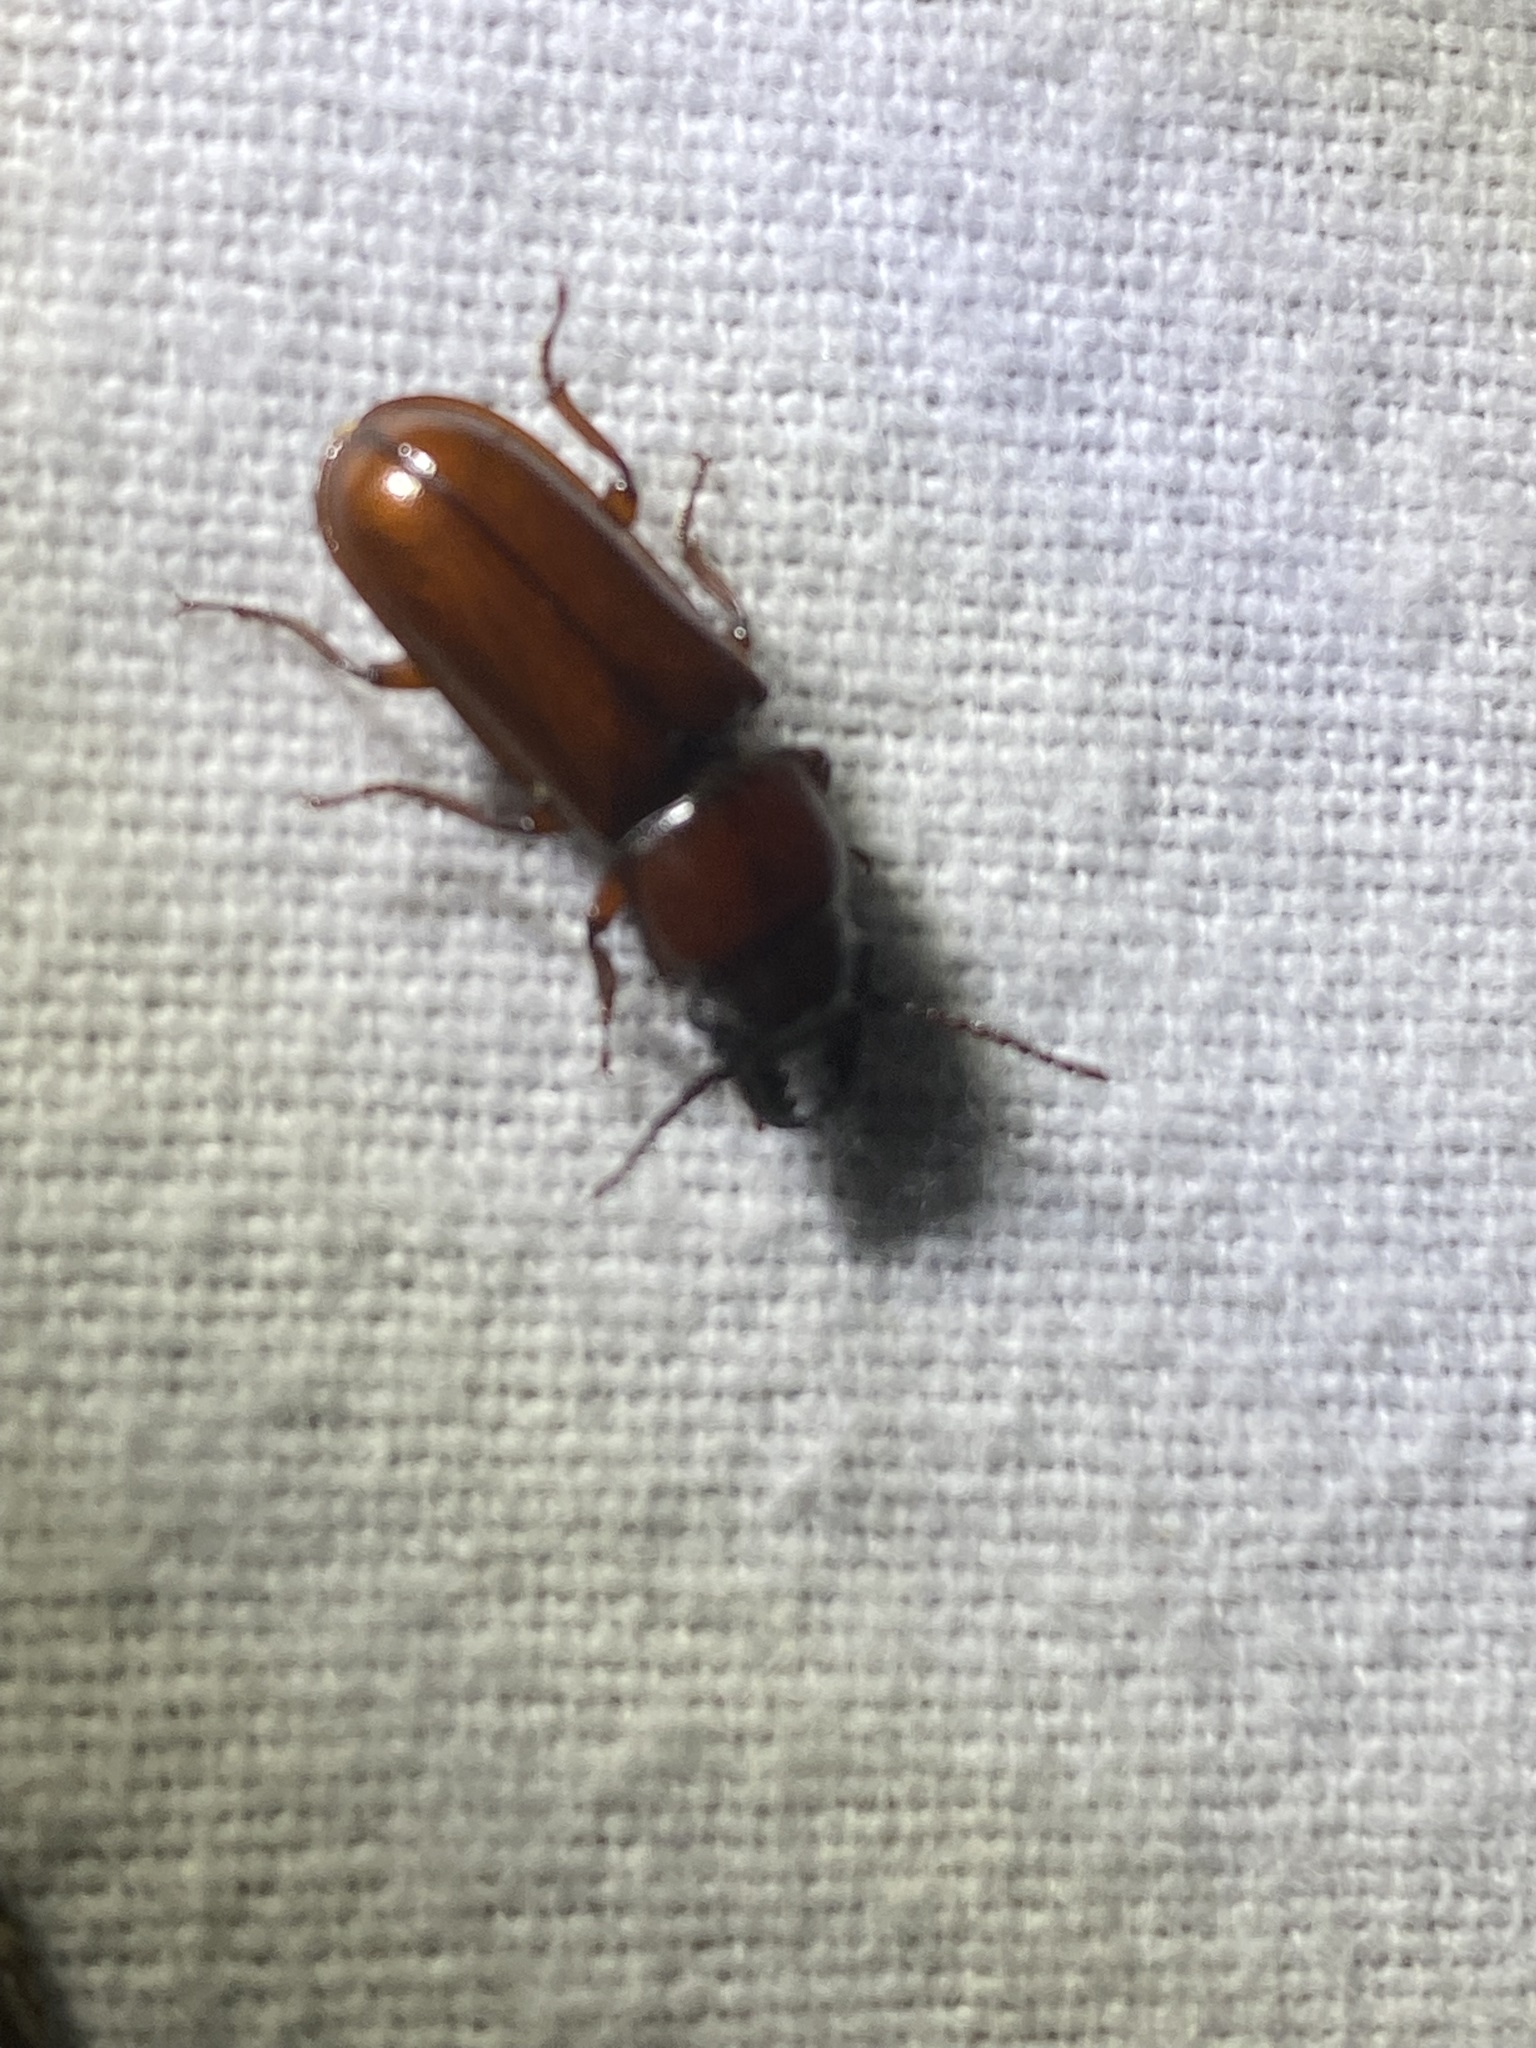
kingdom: Animalia
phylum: Arthropoda
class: Insecta
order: Coleoptera
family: Cerambycidae
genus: Neandra
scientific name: Neandra brunnea
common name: Pole borer
